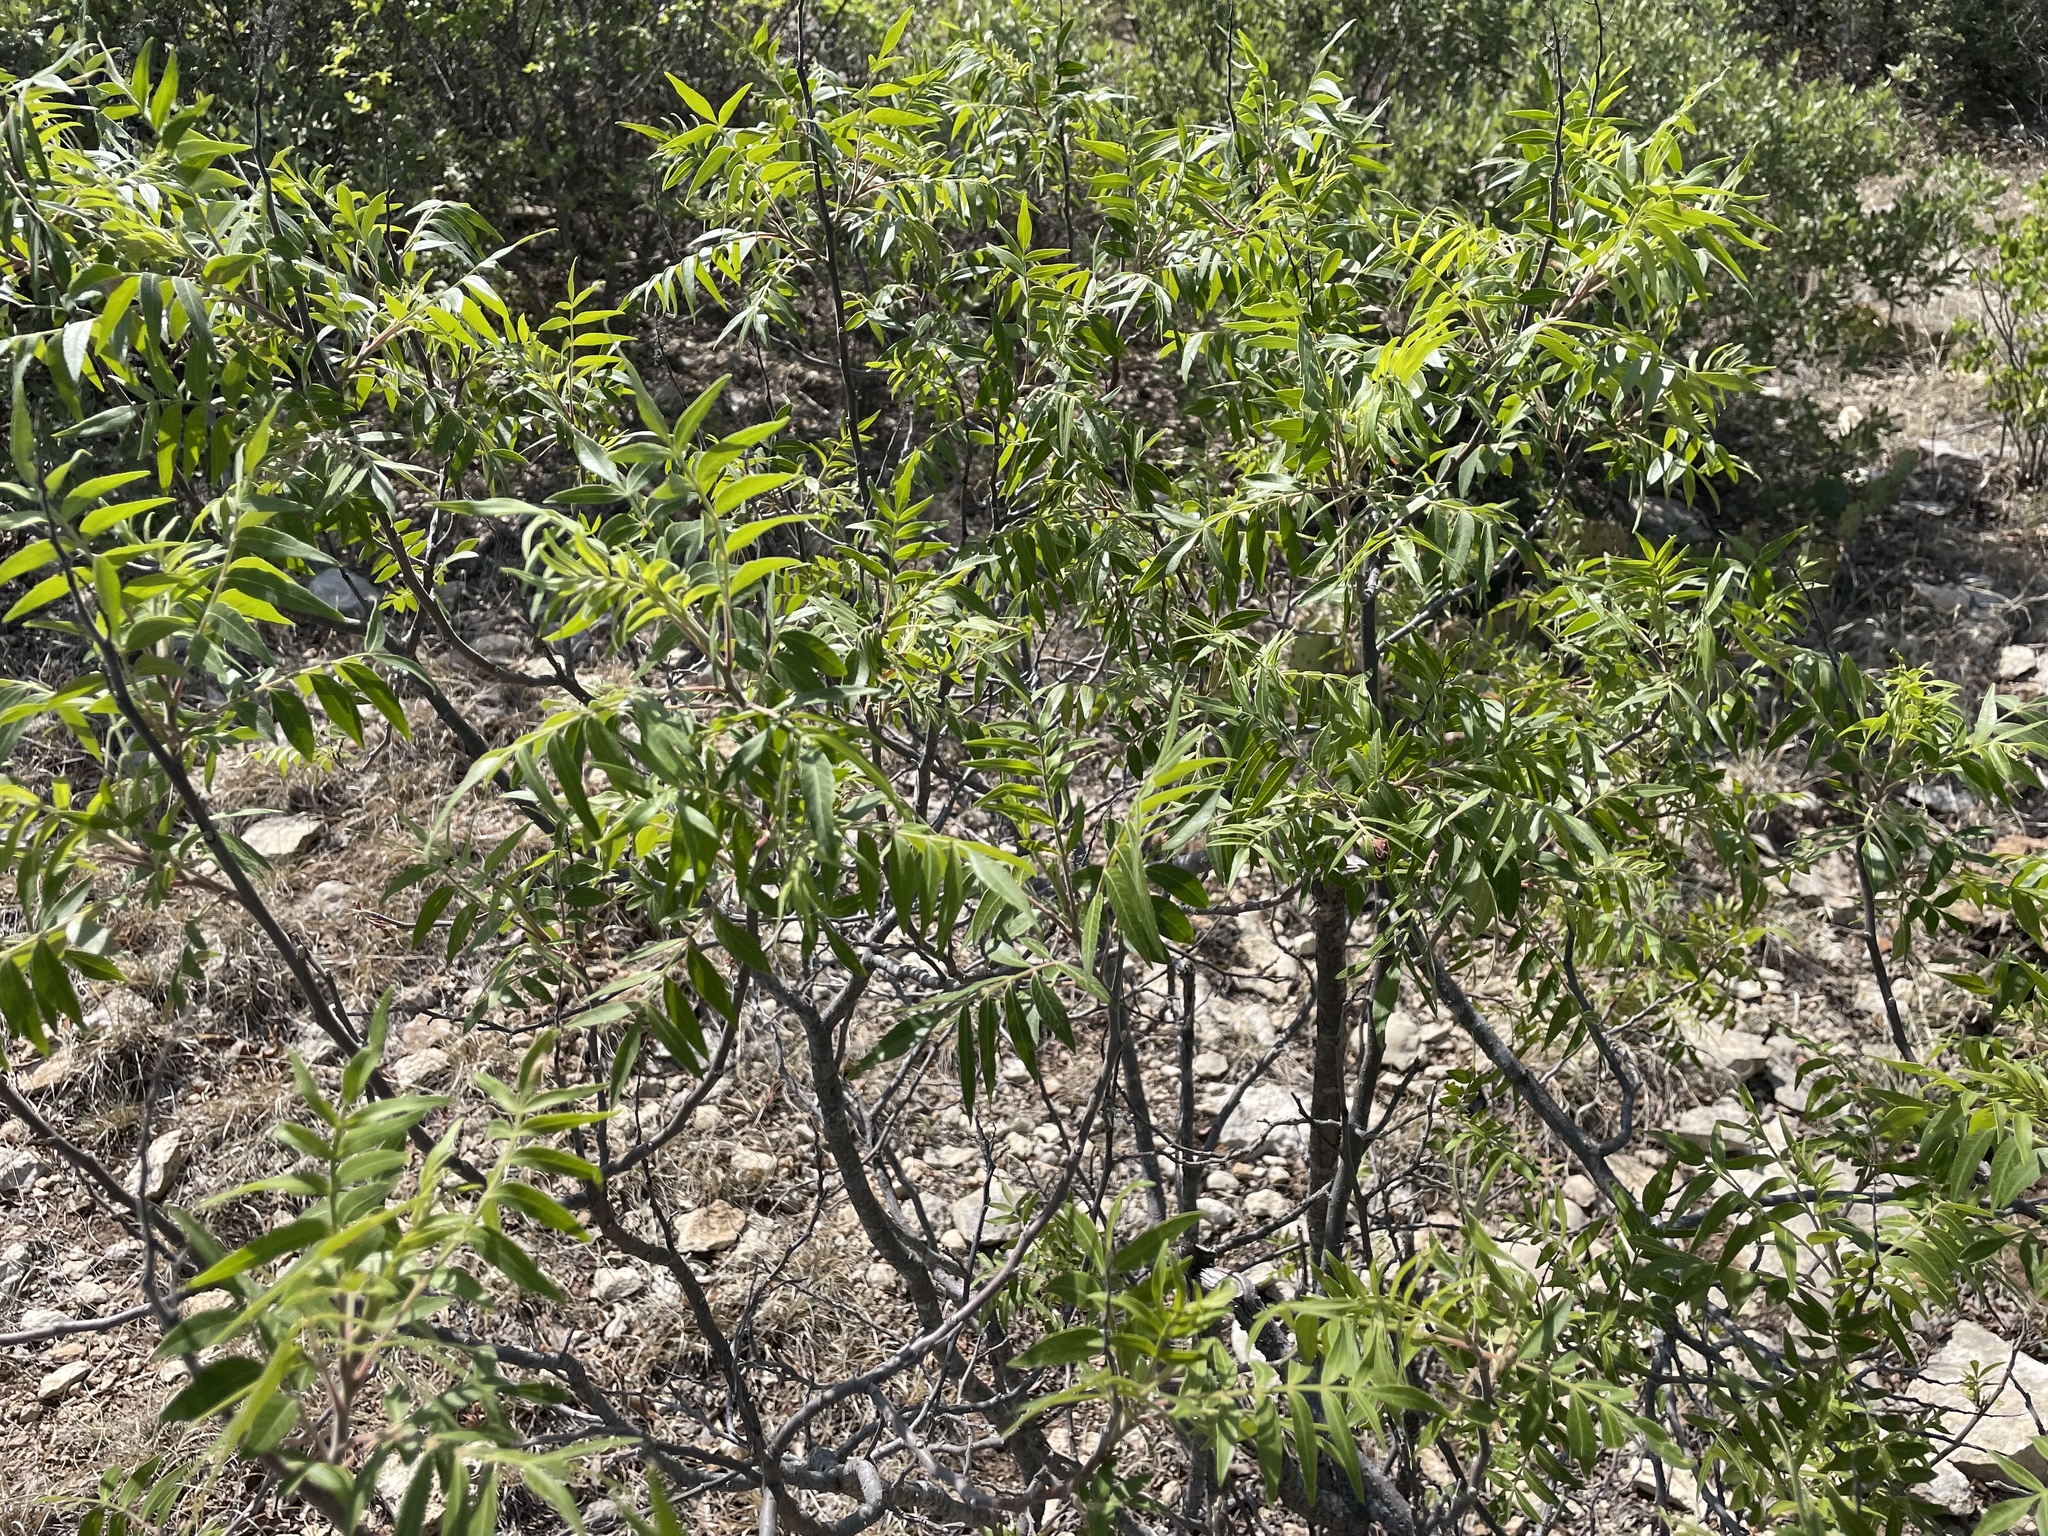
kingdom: Plantae
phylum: Tracheophyta
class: Magnoliopsida
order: Sapindales
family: Anacardiaceae
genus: Rhus
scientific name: Rhus lanceolata
